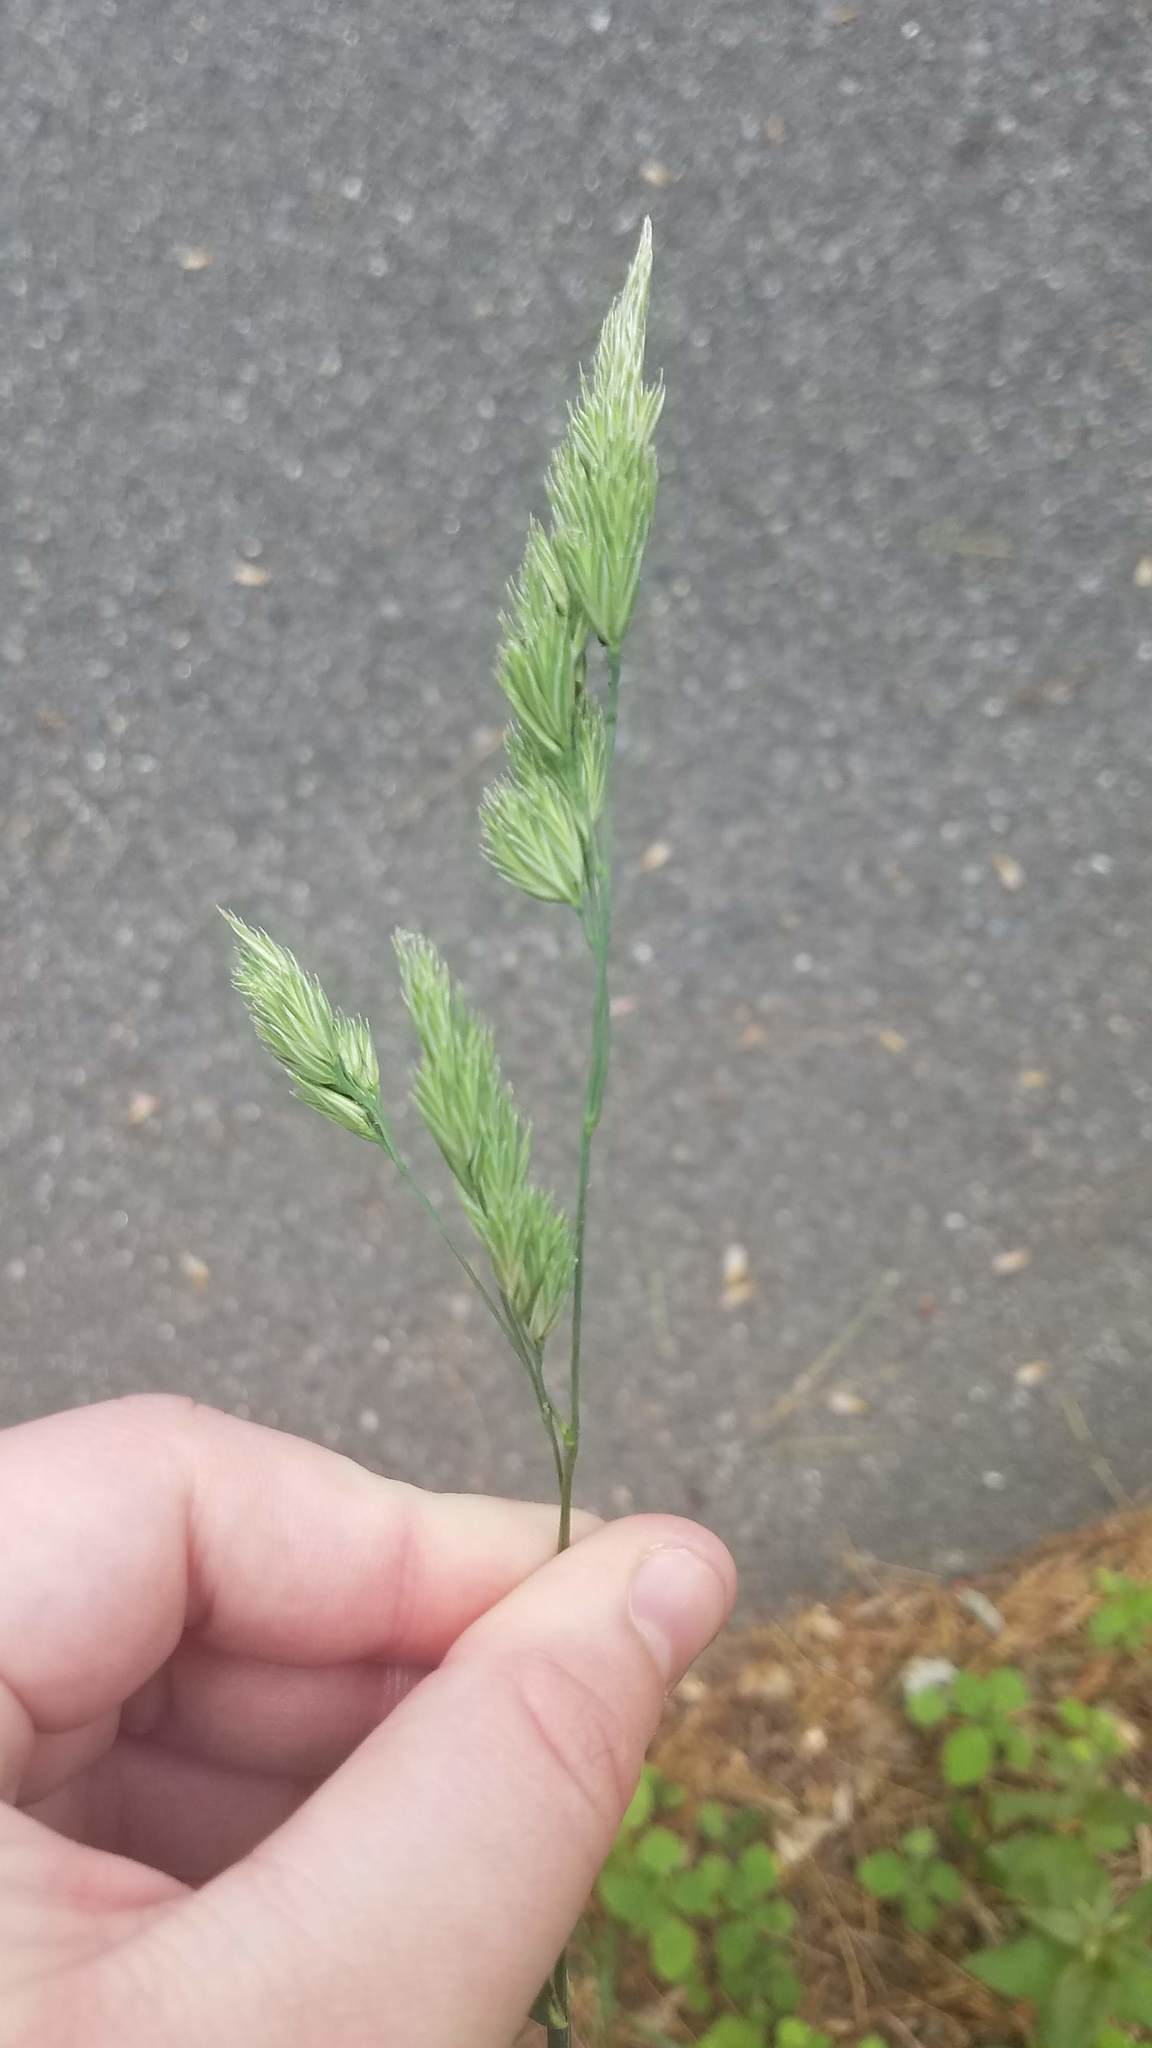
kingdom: Plantae
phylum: Tracheophyta
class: Liliopsida
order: Poales
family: Poaceae
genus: Dactylis
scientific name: Dactylis glomerata
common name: Orchardgrass
